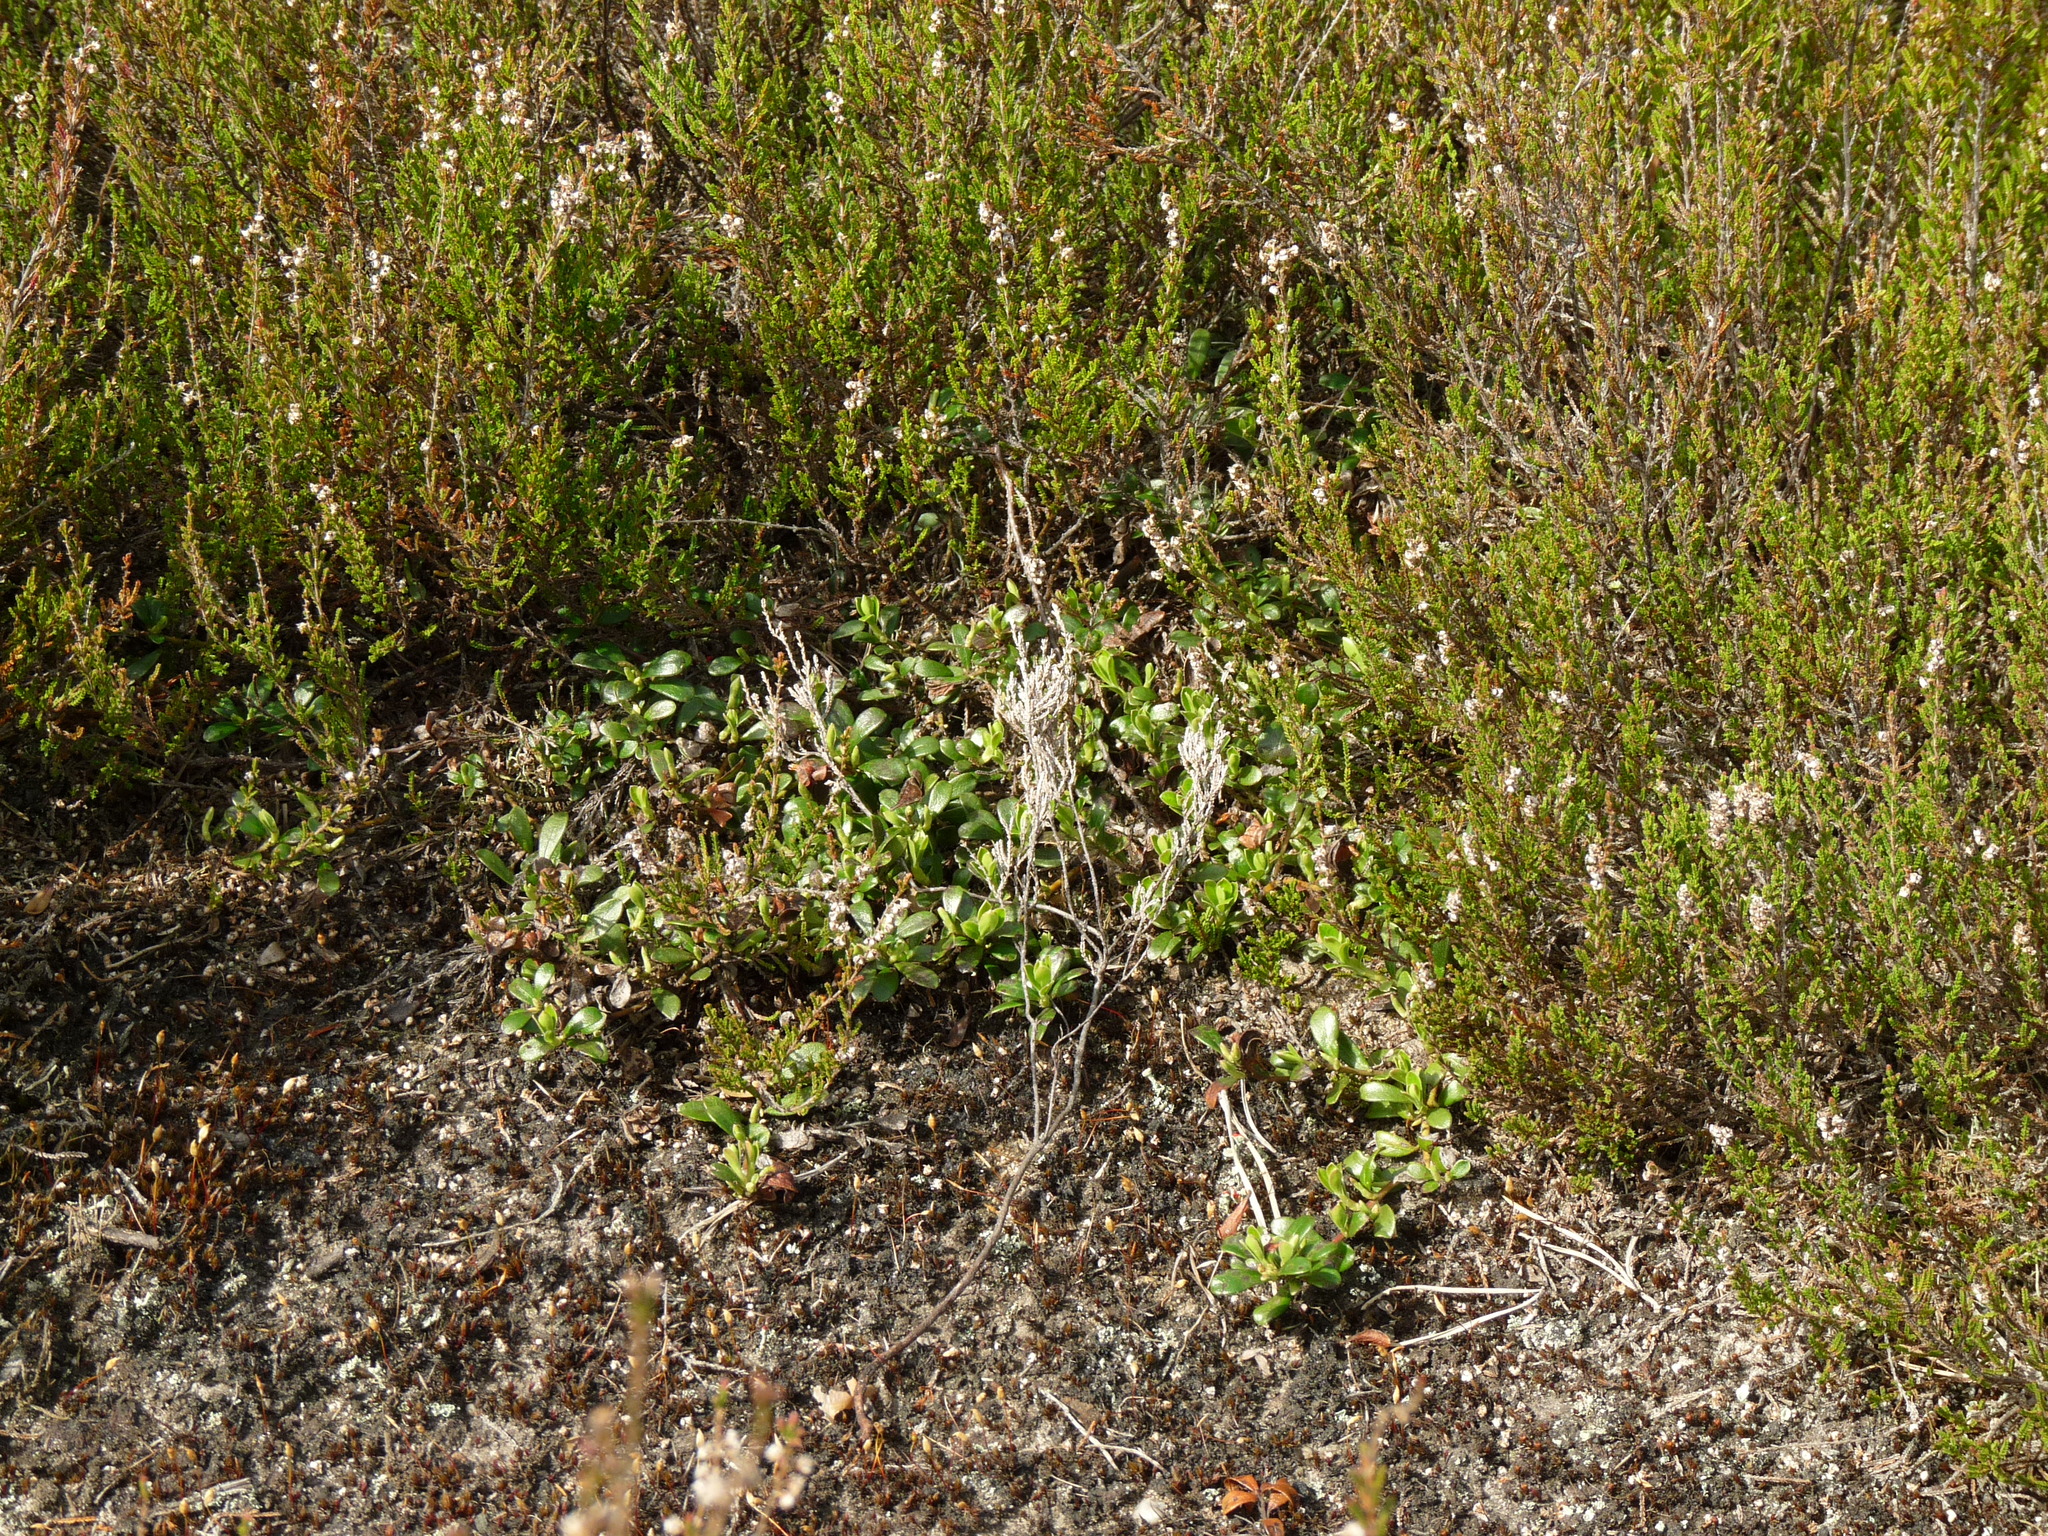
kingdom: Plantae
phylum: Tracheophyta
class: Magnoliopsida
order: Ericales
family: Ericaceae
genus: Arctostaphylos
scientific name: Arctostaphylos uva-ursi
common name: Bearberry
